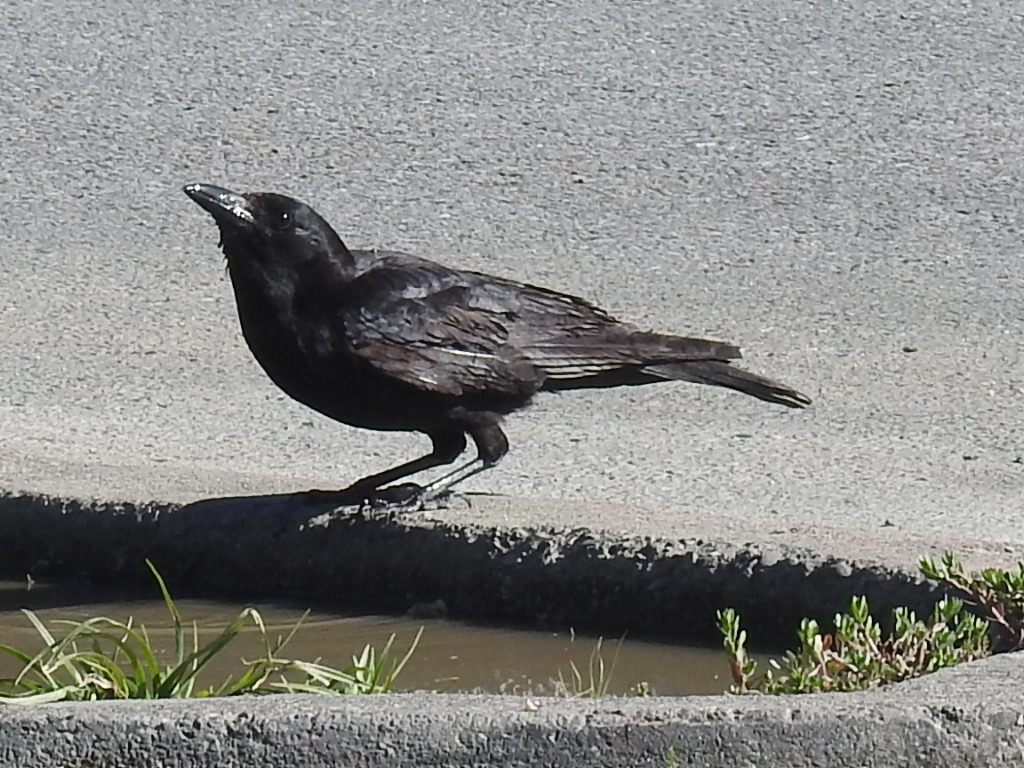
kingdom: Animalia
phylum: Chordata
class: Aves
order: Passeriformes
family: Corvidae
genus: Corvus
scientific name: Corvus brachyrhynchos
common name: American crow
